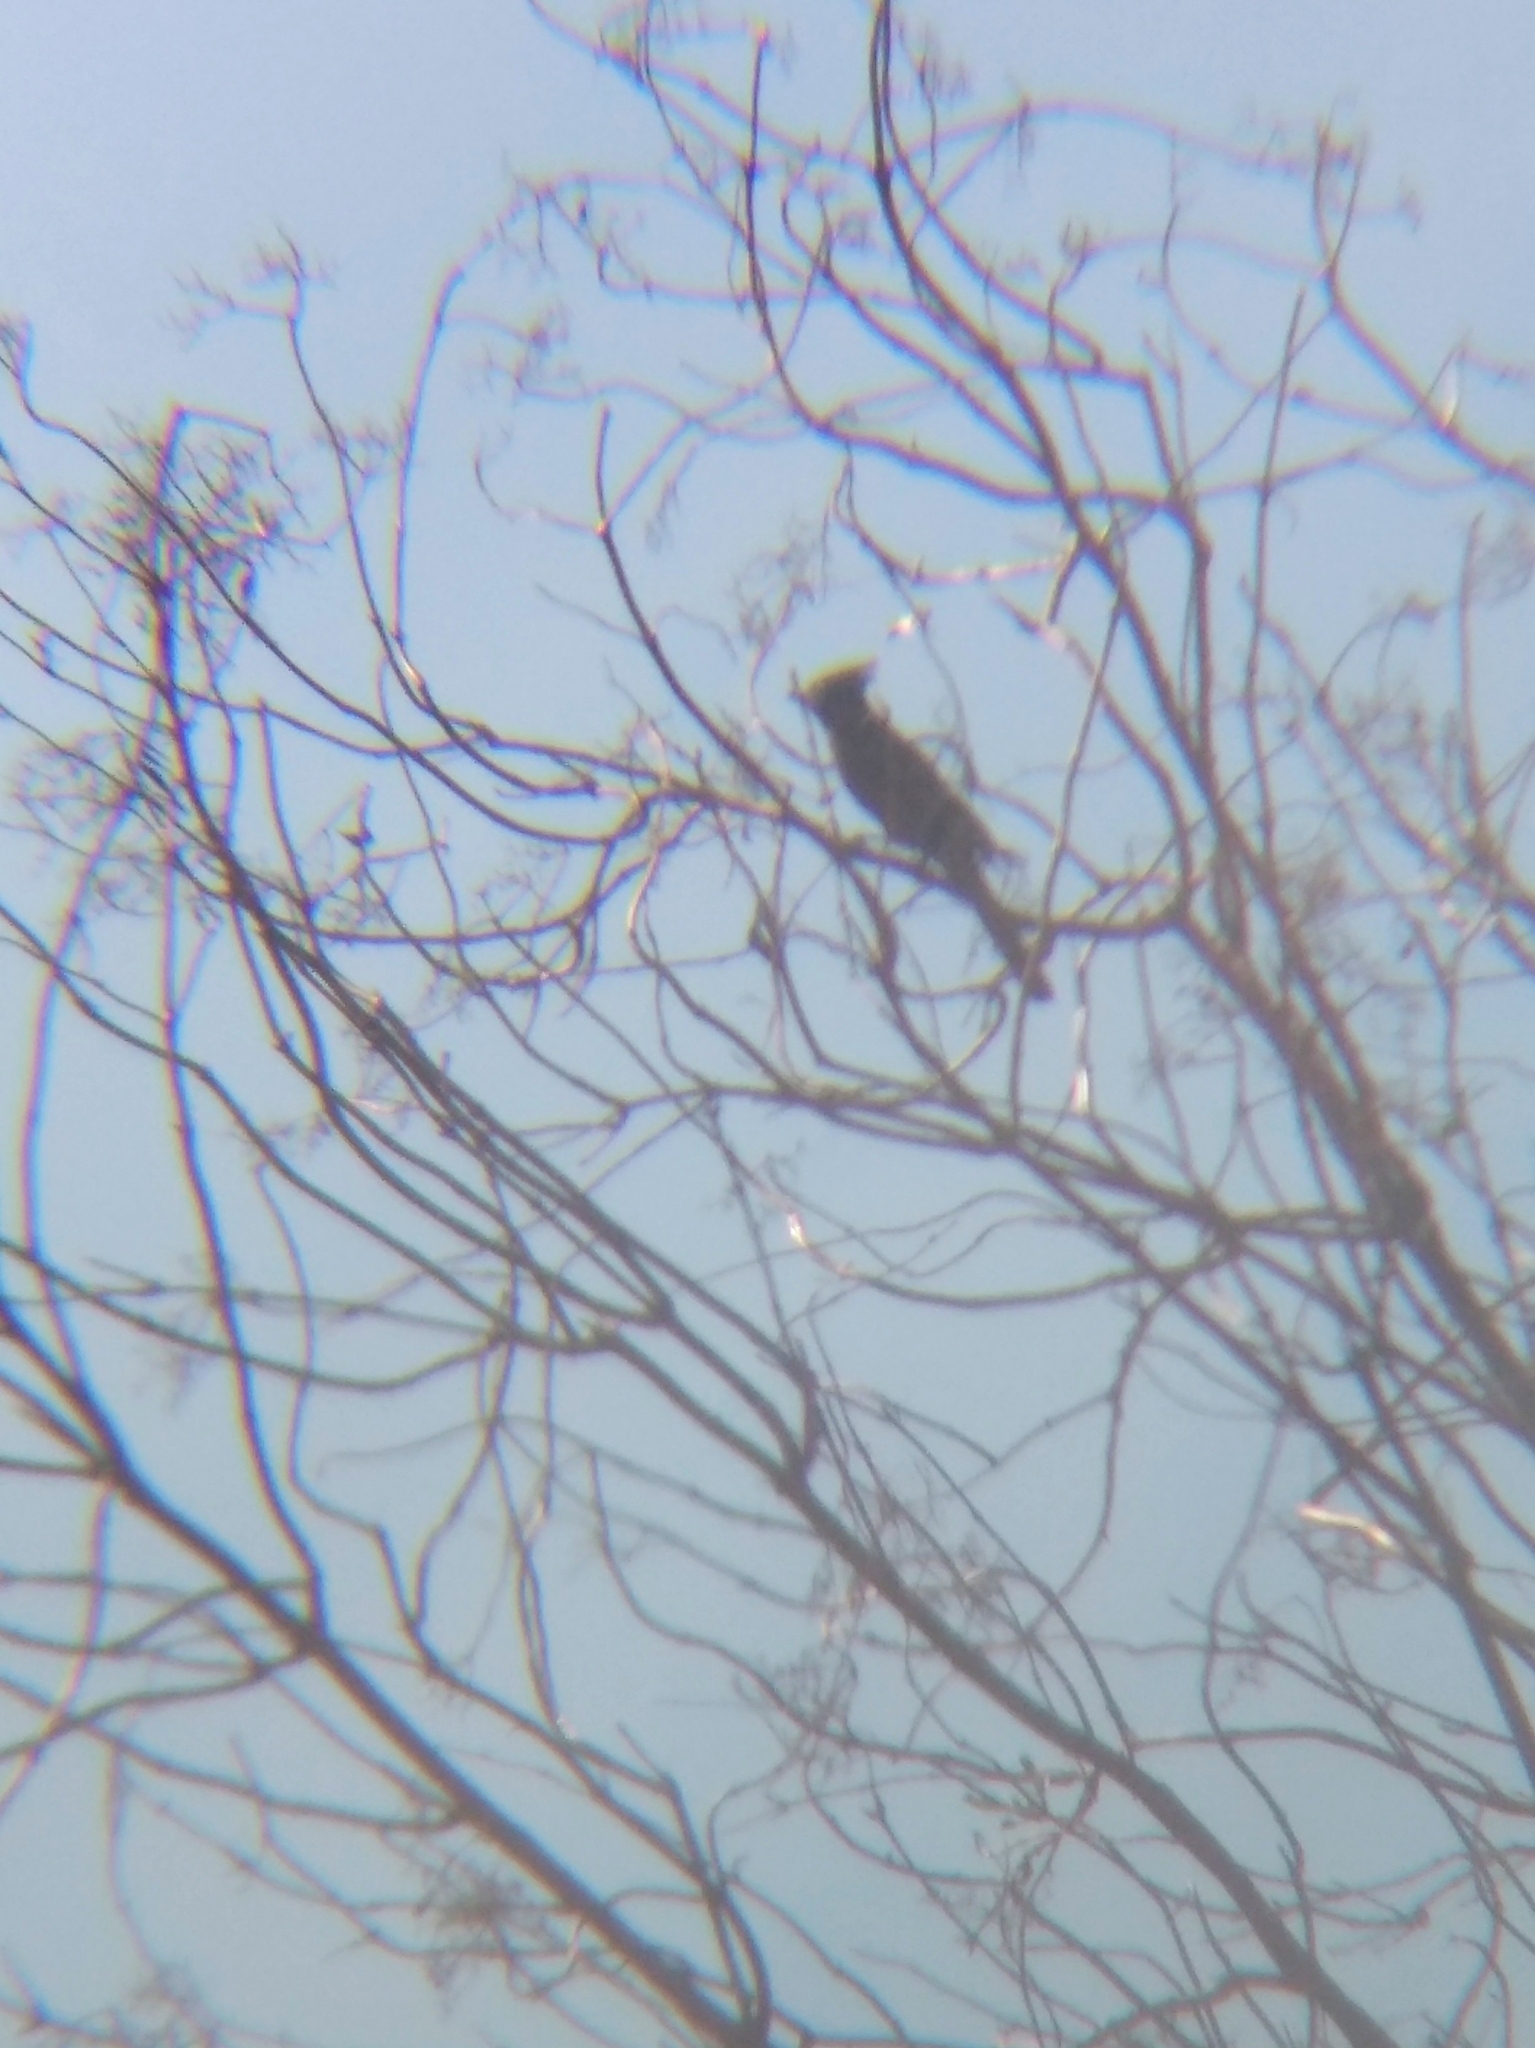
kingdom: Animalia
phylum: Chordata
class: Aves
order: Passeriformes
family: Ptilogonatidae
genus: Phainopepla
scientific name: Phainopepla nitens
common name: Phainopepla
